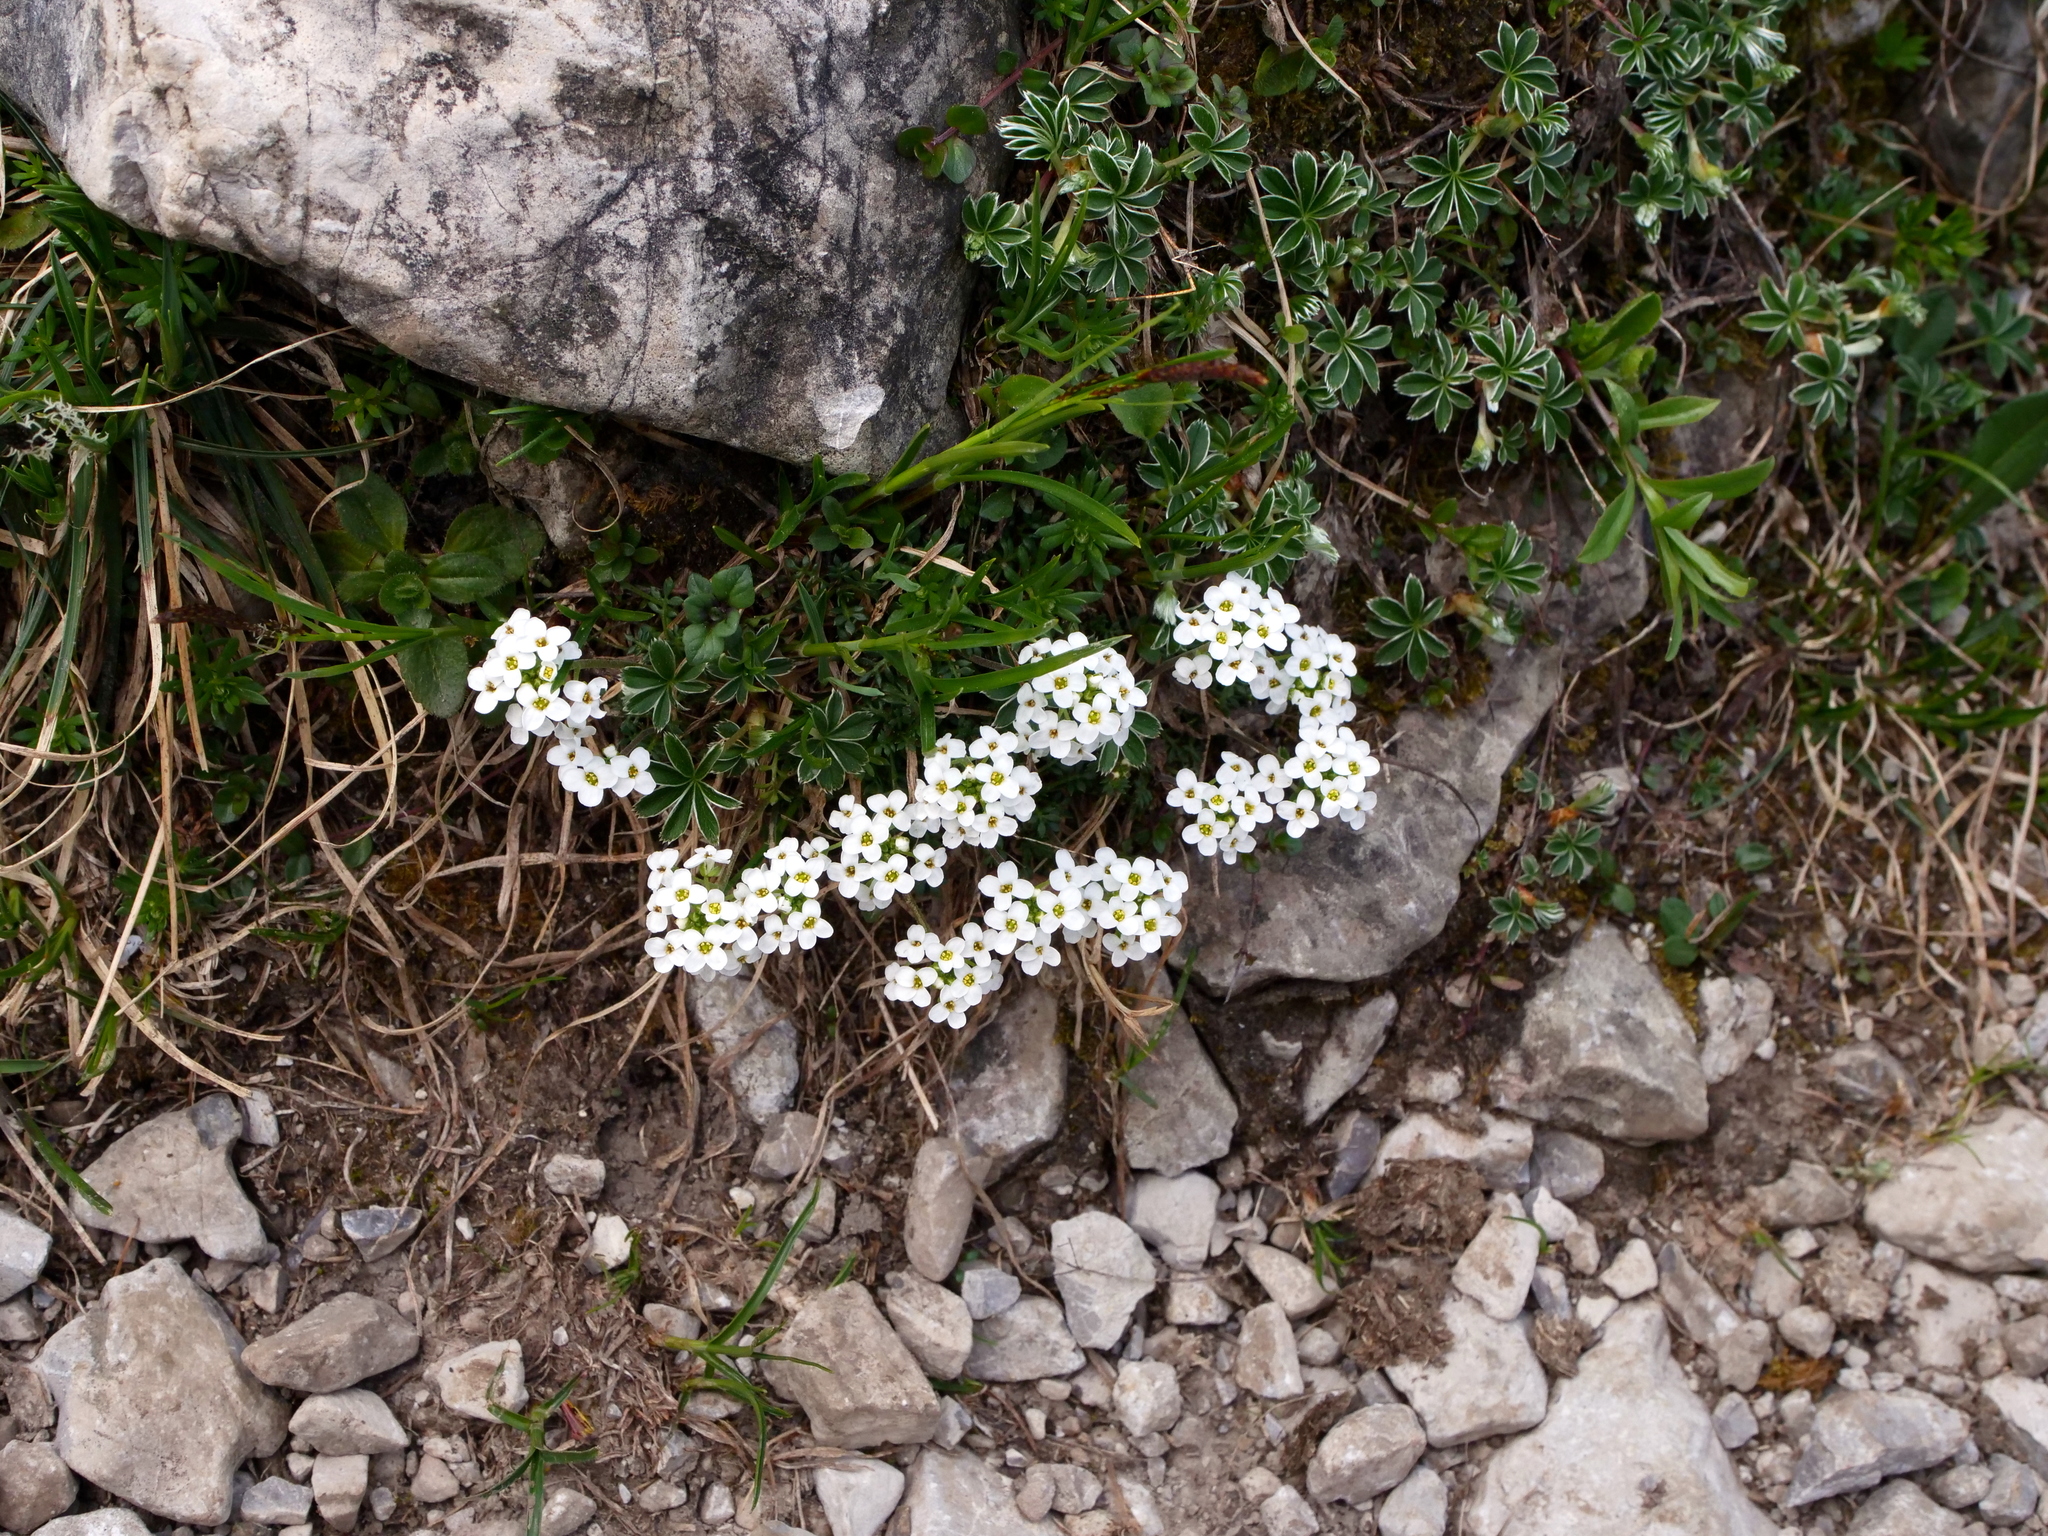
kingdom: Plantae
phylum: Tracheophyta
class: Magnoliopsida
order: Brassicales
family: Brassicaceae
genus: Hornungia
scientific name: Hornungia alpina
